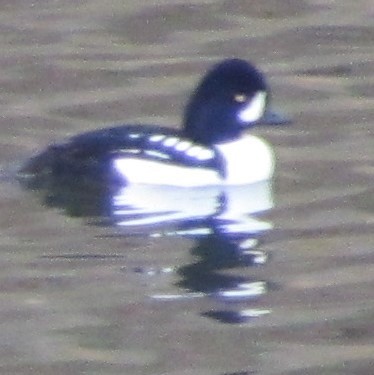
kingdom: Animalia
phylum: Chordata
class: Aves
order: Anseriformes
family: Anatidae
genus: Bucephala
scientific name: Bucephala islandica
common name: Barrow's goldeneye
